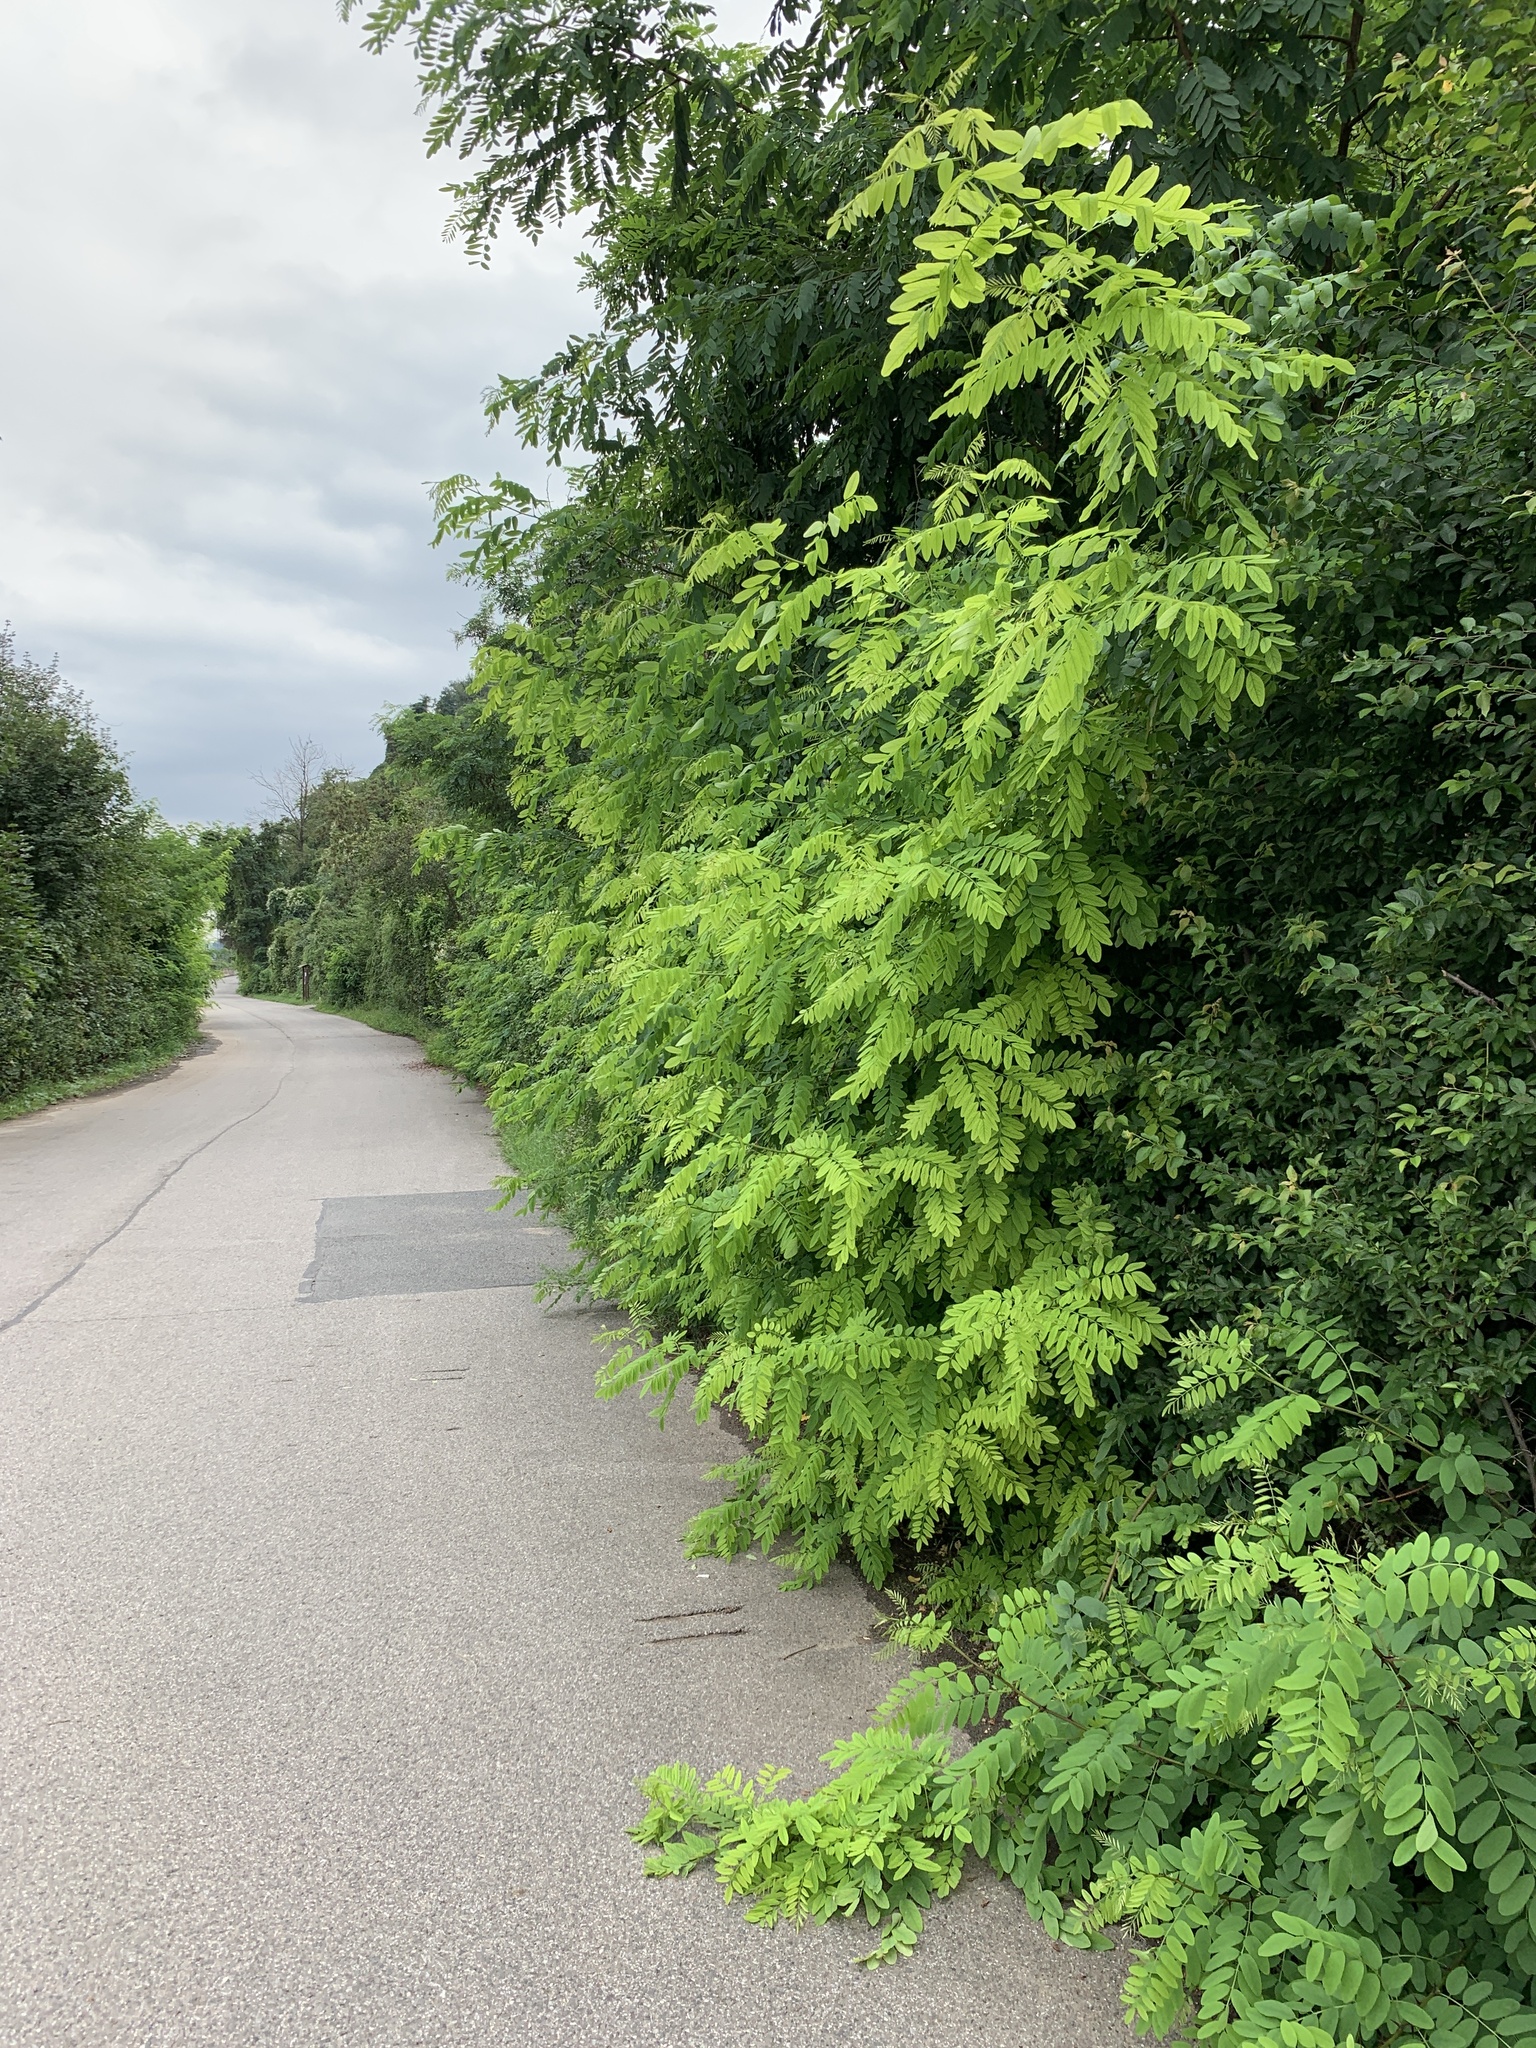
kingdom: Plantae
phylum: Tracheophyta
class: Magnoliopsida
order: Fabales
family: Fabaceae
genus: Robinia
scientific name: Robinia pseudoacacia
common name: Black locust
